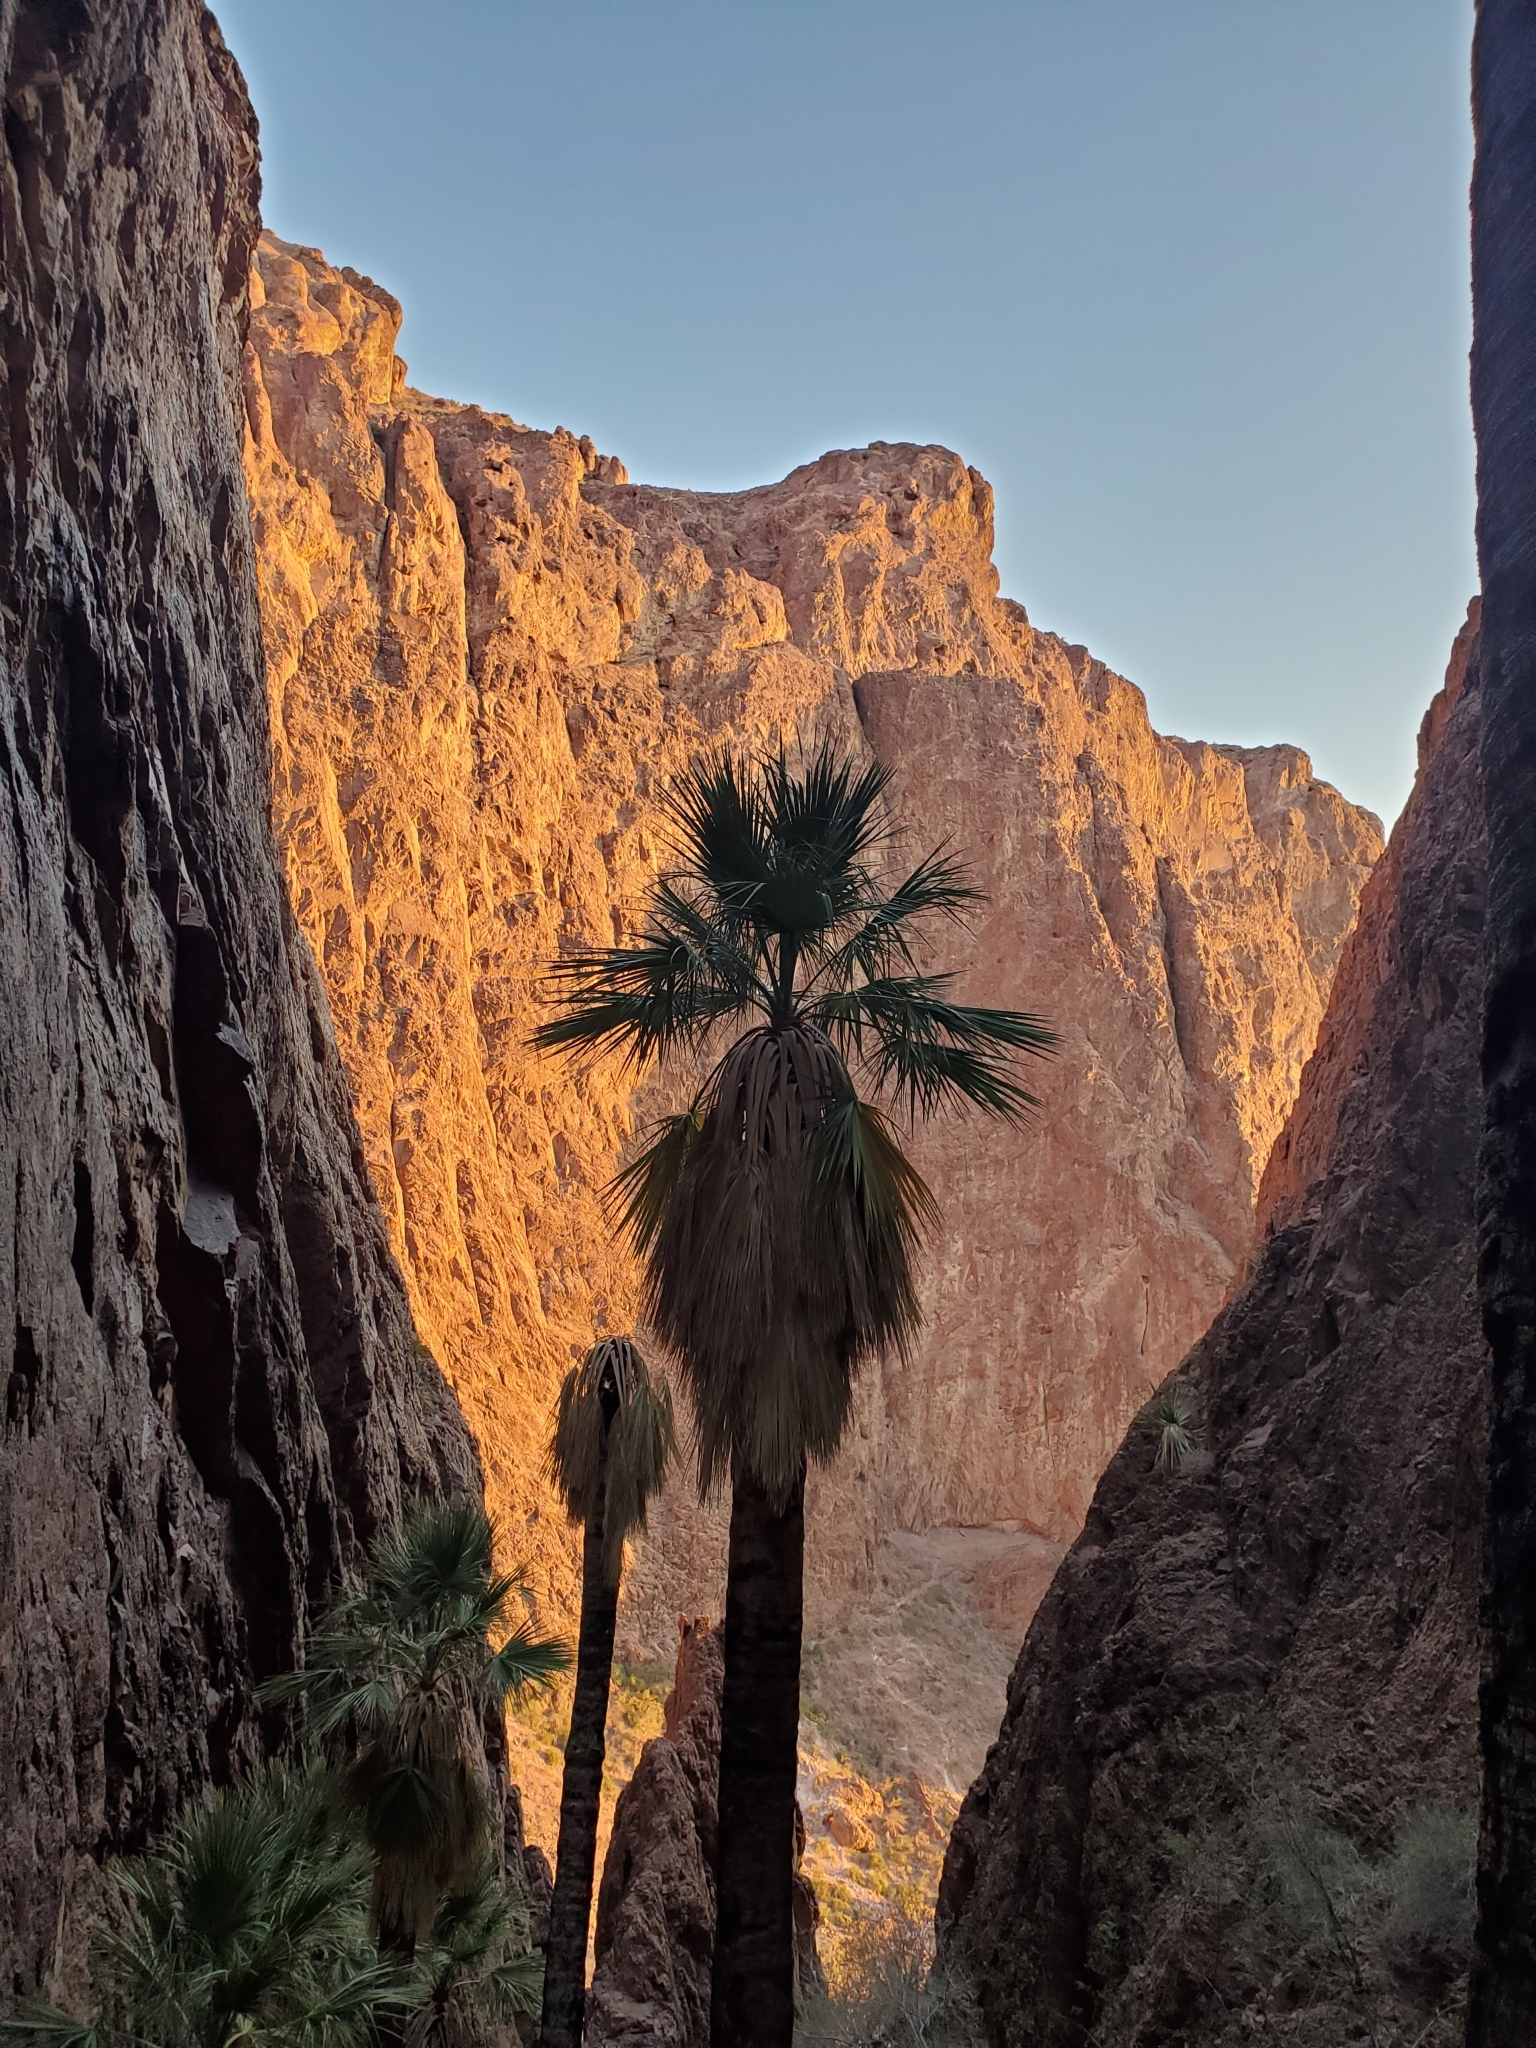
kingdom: Plantae
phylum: Tracheophyta
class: Liliopsida
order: Arecales
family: Arecaceae
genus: Washingtonia
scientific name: Washingtonia filifera
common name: California fan palm
